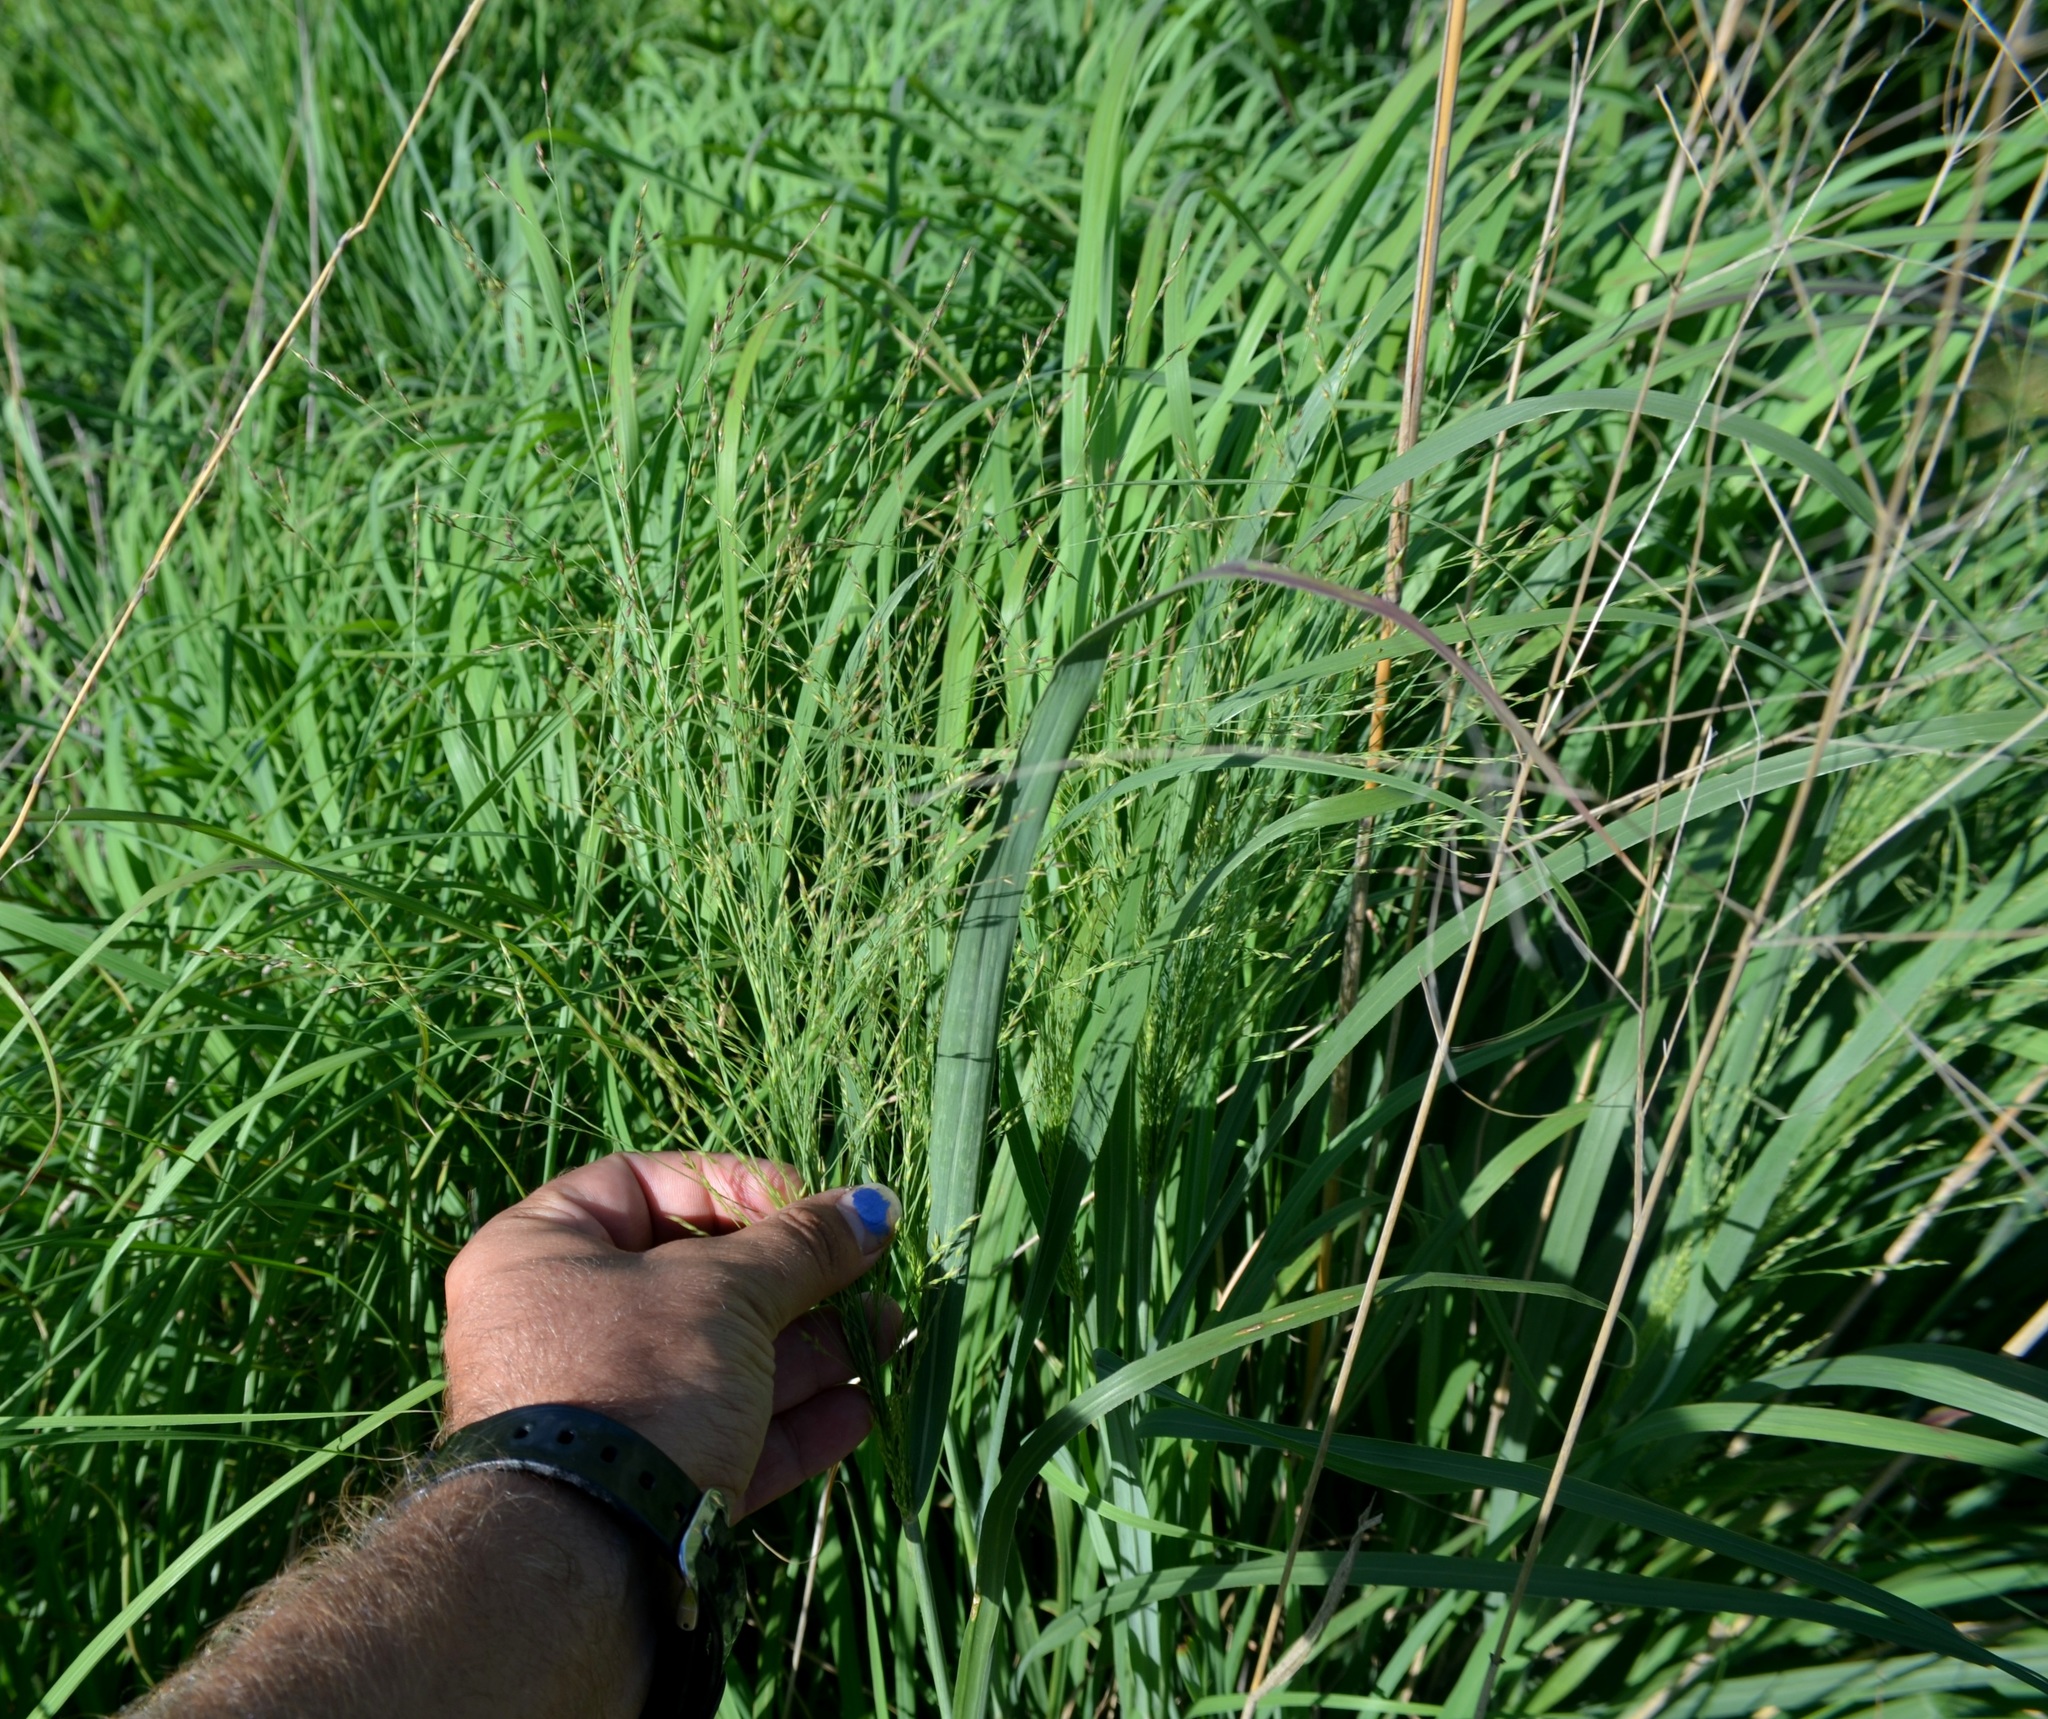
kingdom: Plantae
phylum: Tracheophyta
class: Liliopsida
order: Poales
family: Poaceae
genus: Panicum
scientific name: Panicum virgatum
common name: Switchgrass
